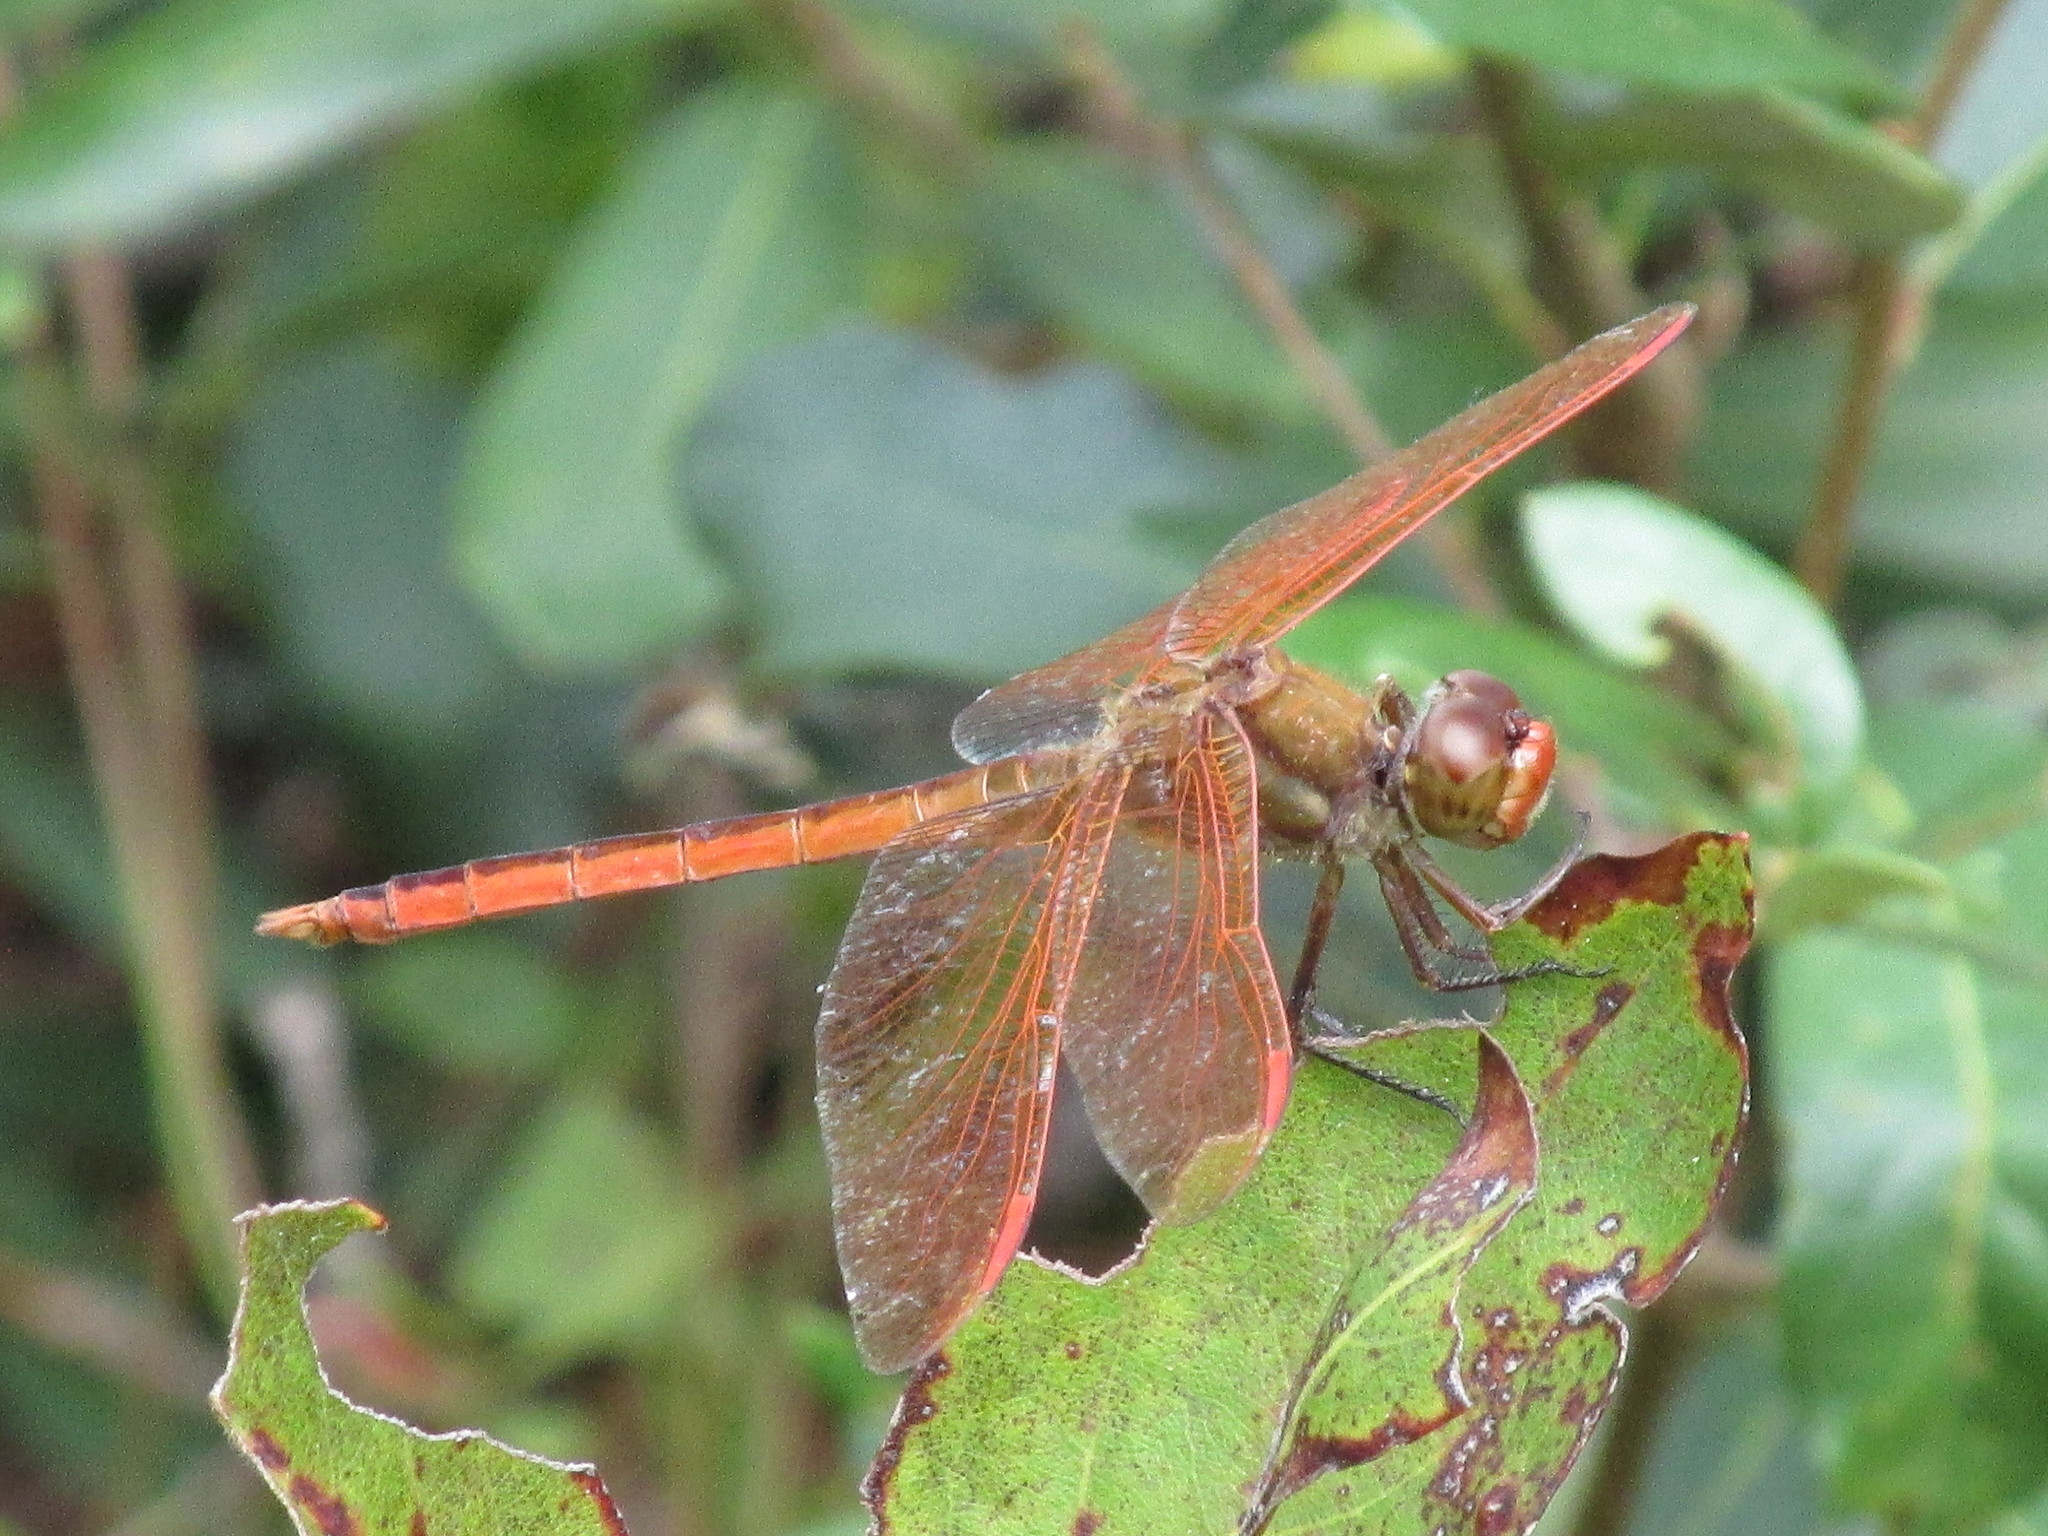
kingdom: Animalia
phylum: Arthropoda
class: Insecta
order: Odonata
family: Libellulidae
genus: Libellula
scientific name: Libellula auripennis
